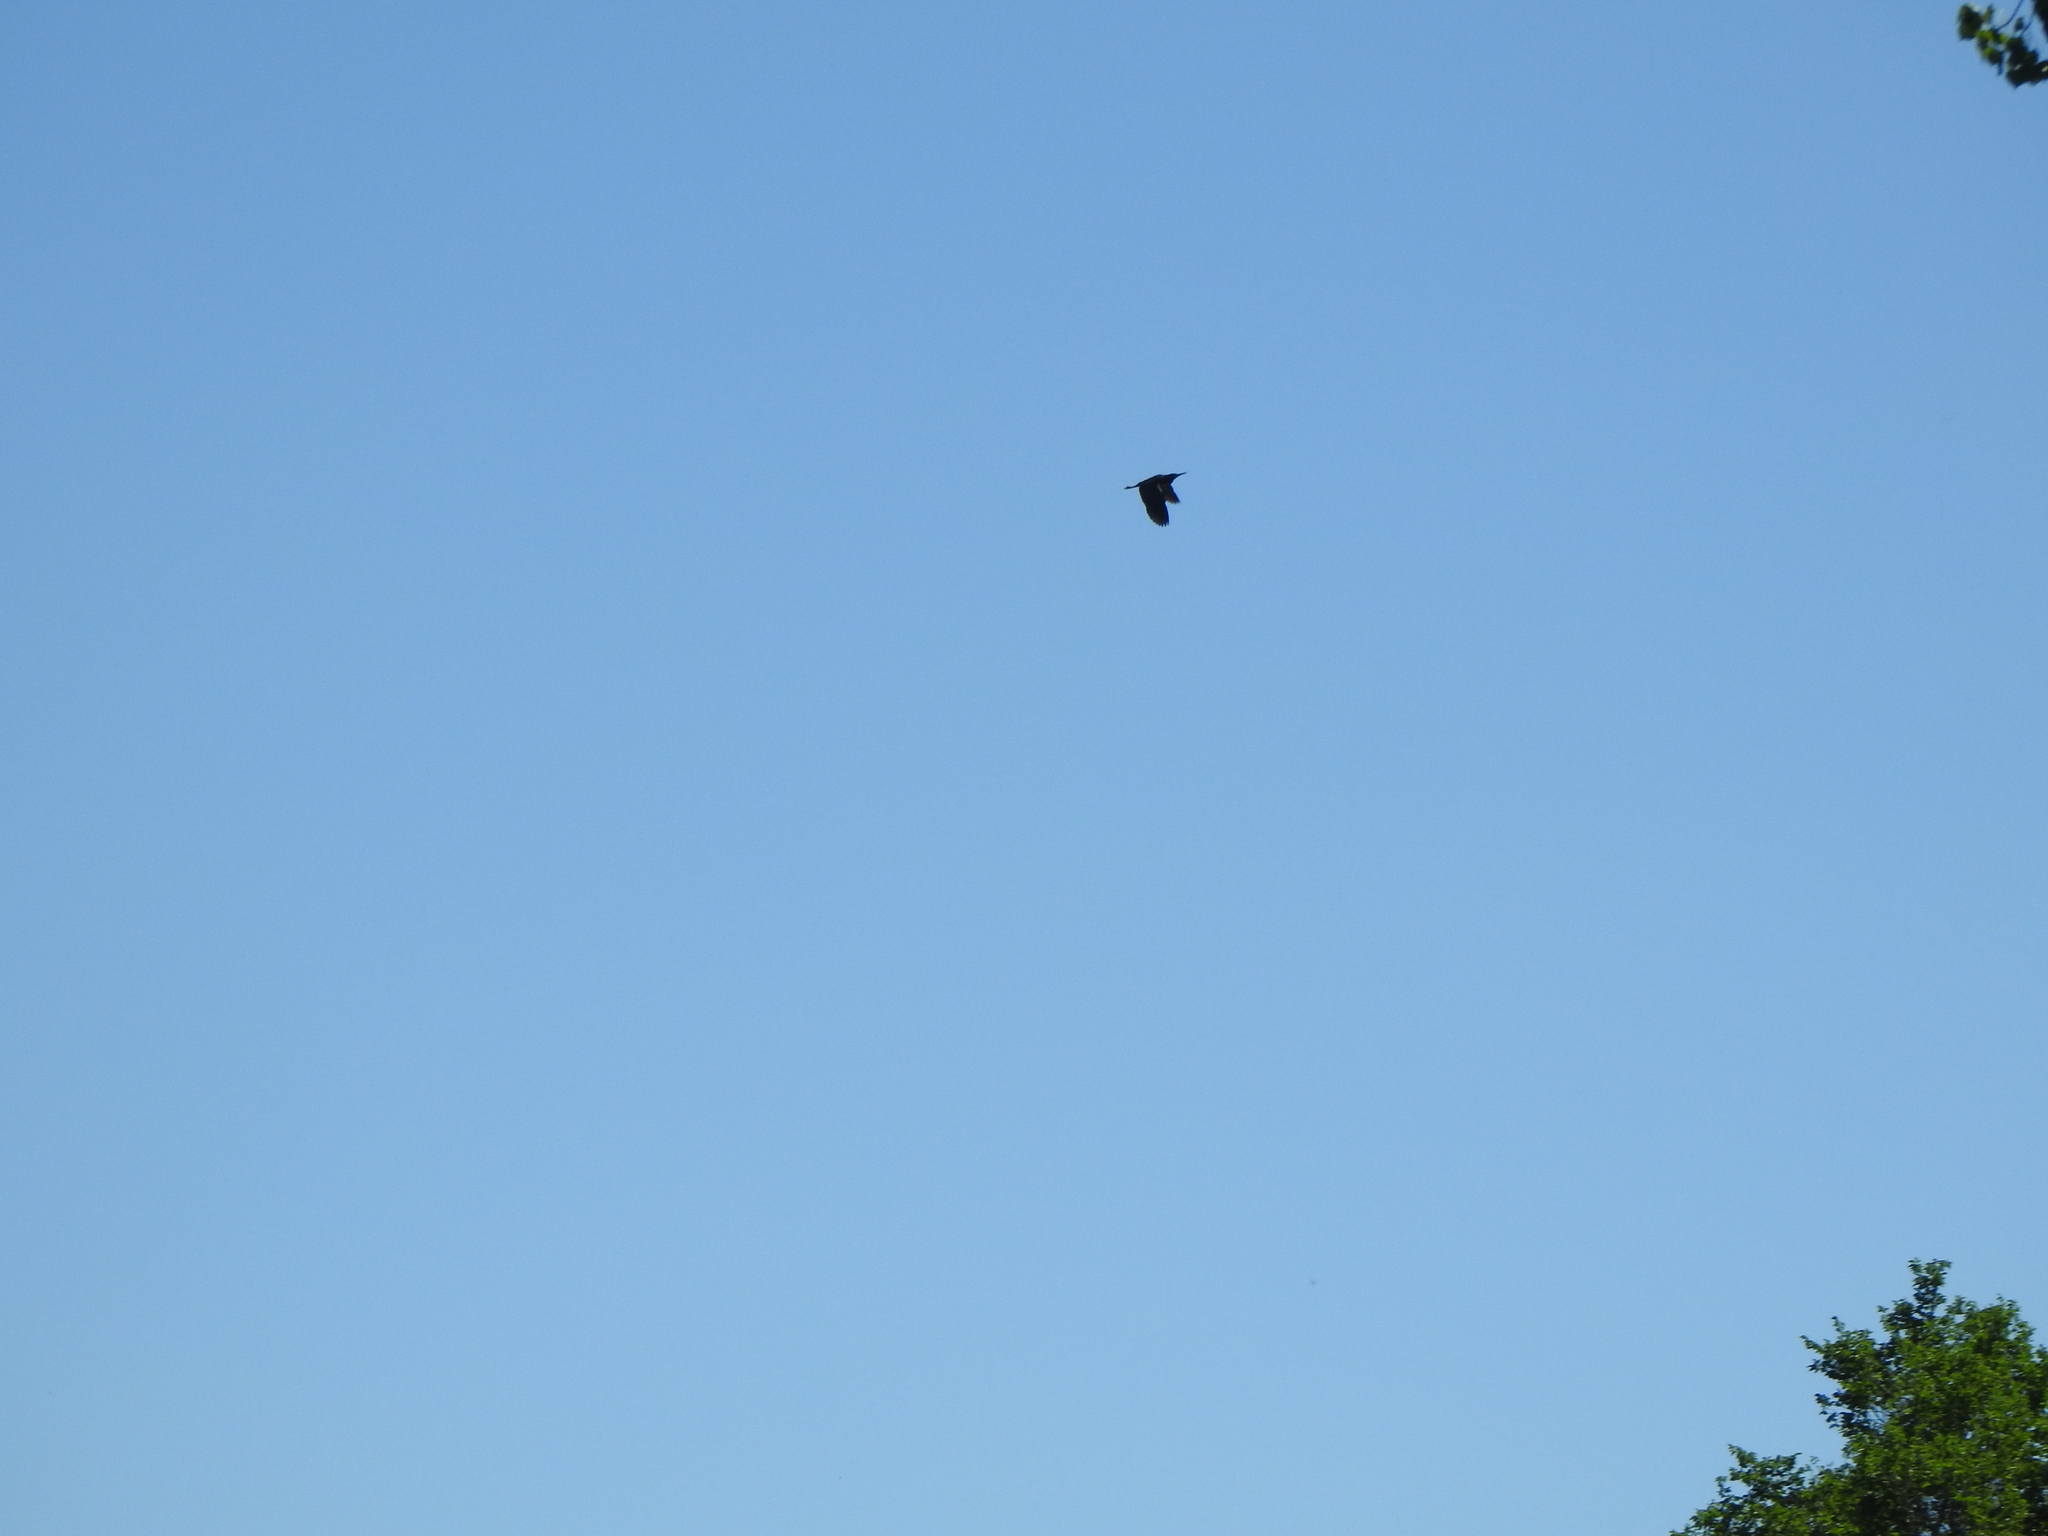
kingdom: Animalia
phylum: Chordata
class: Aves
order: Pelecaniformes
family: Ardeidae
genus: Butorides
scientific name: Butorides virescens
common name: Green heron
